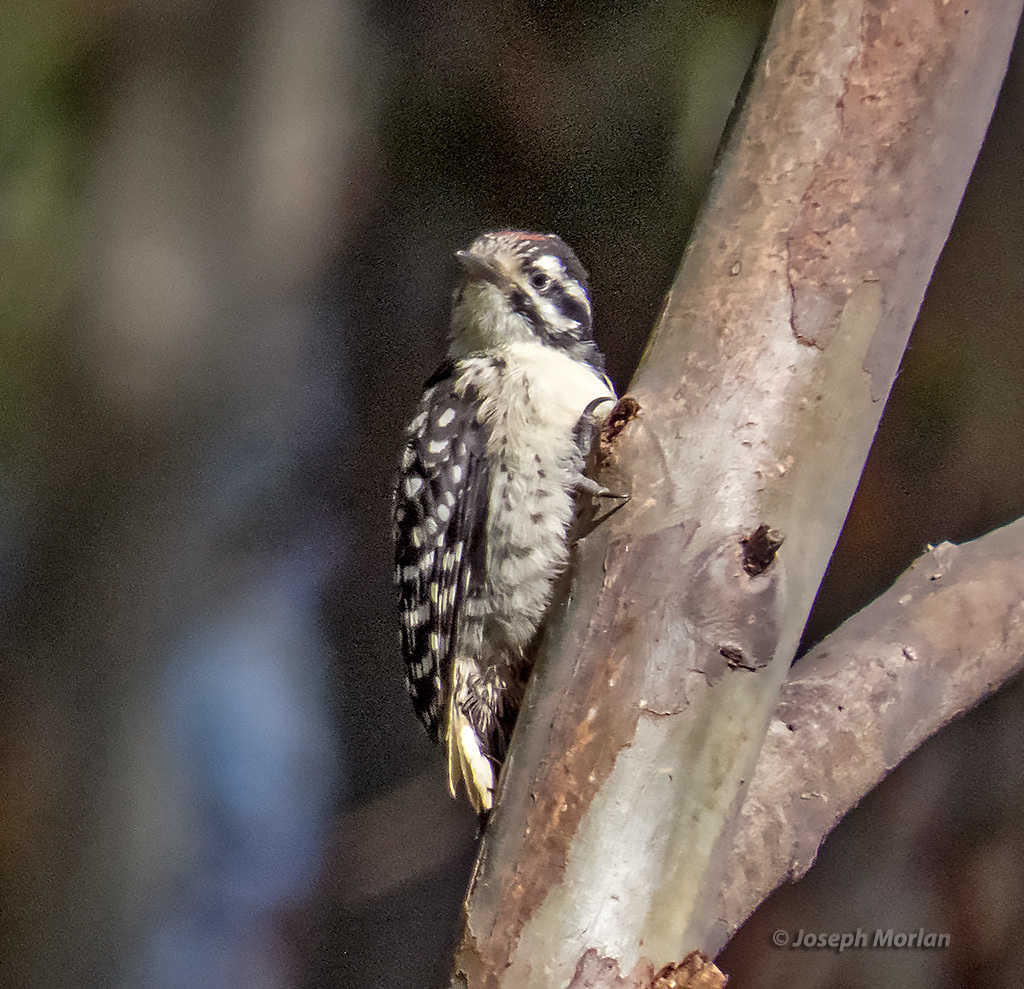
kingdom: Animalia
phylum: Chordata
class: Aves
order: Piciformes
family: Picidae
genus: Dryobates
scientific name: Dryobates nuttallii
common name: Nuttall's woodpecker
